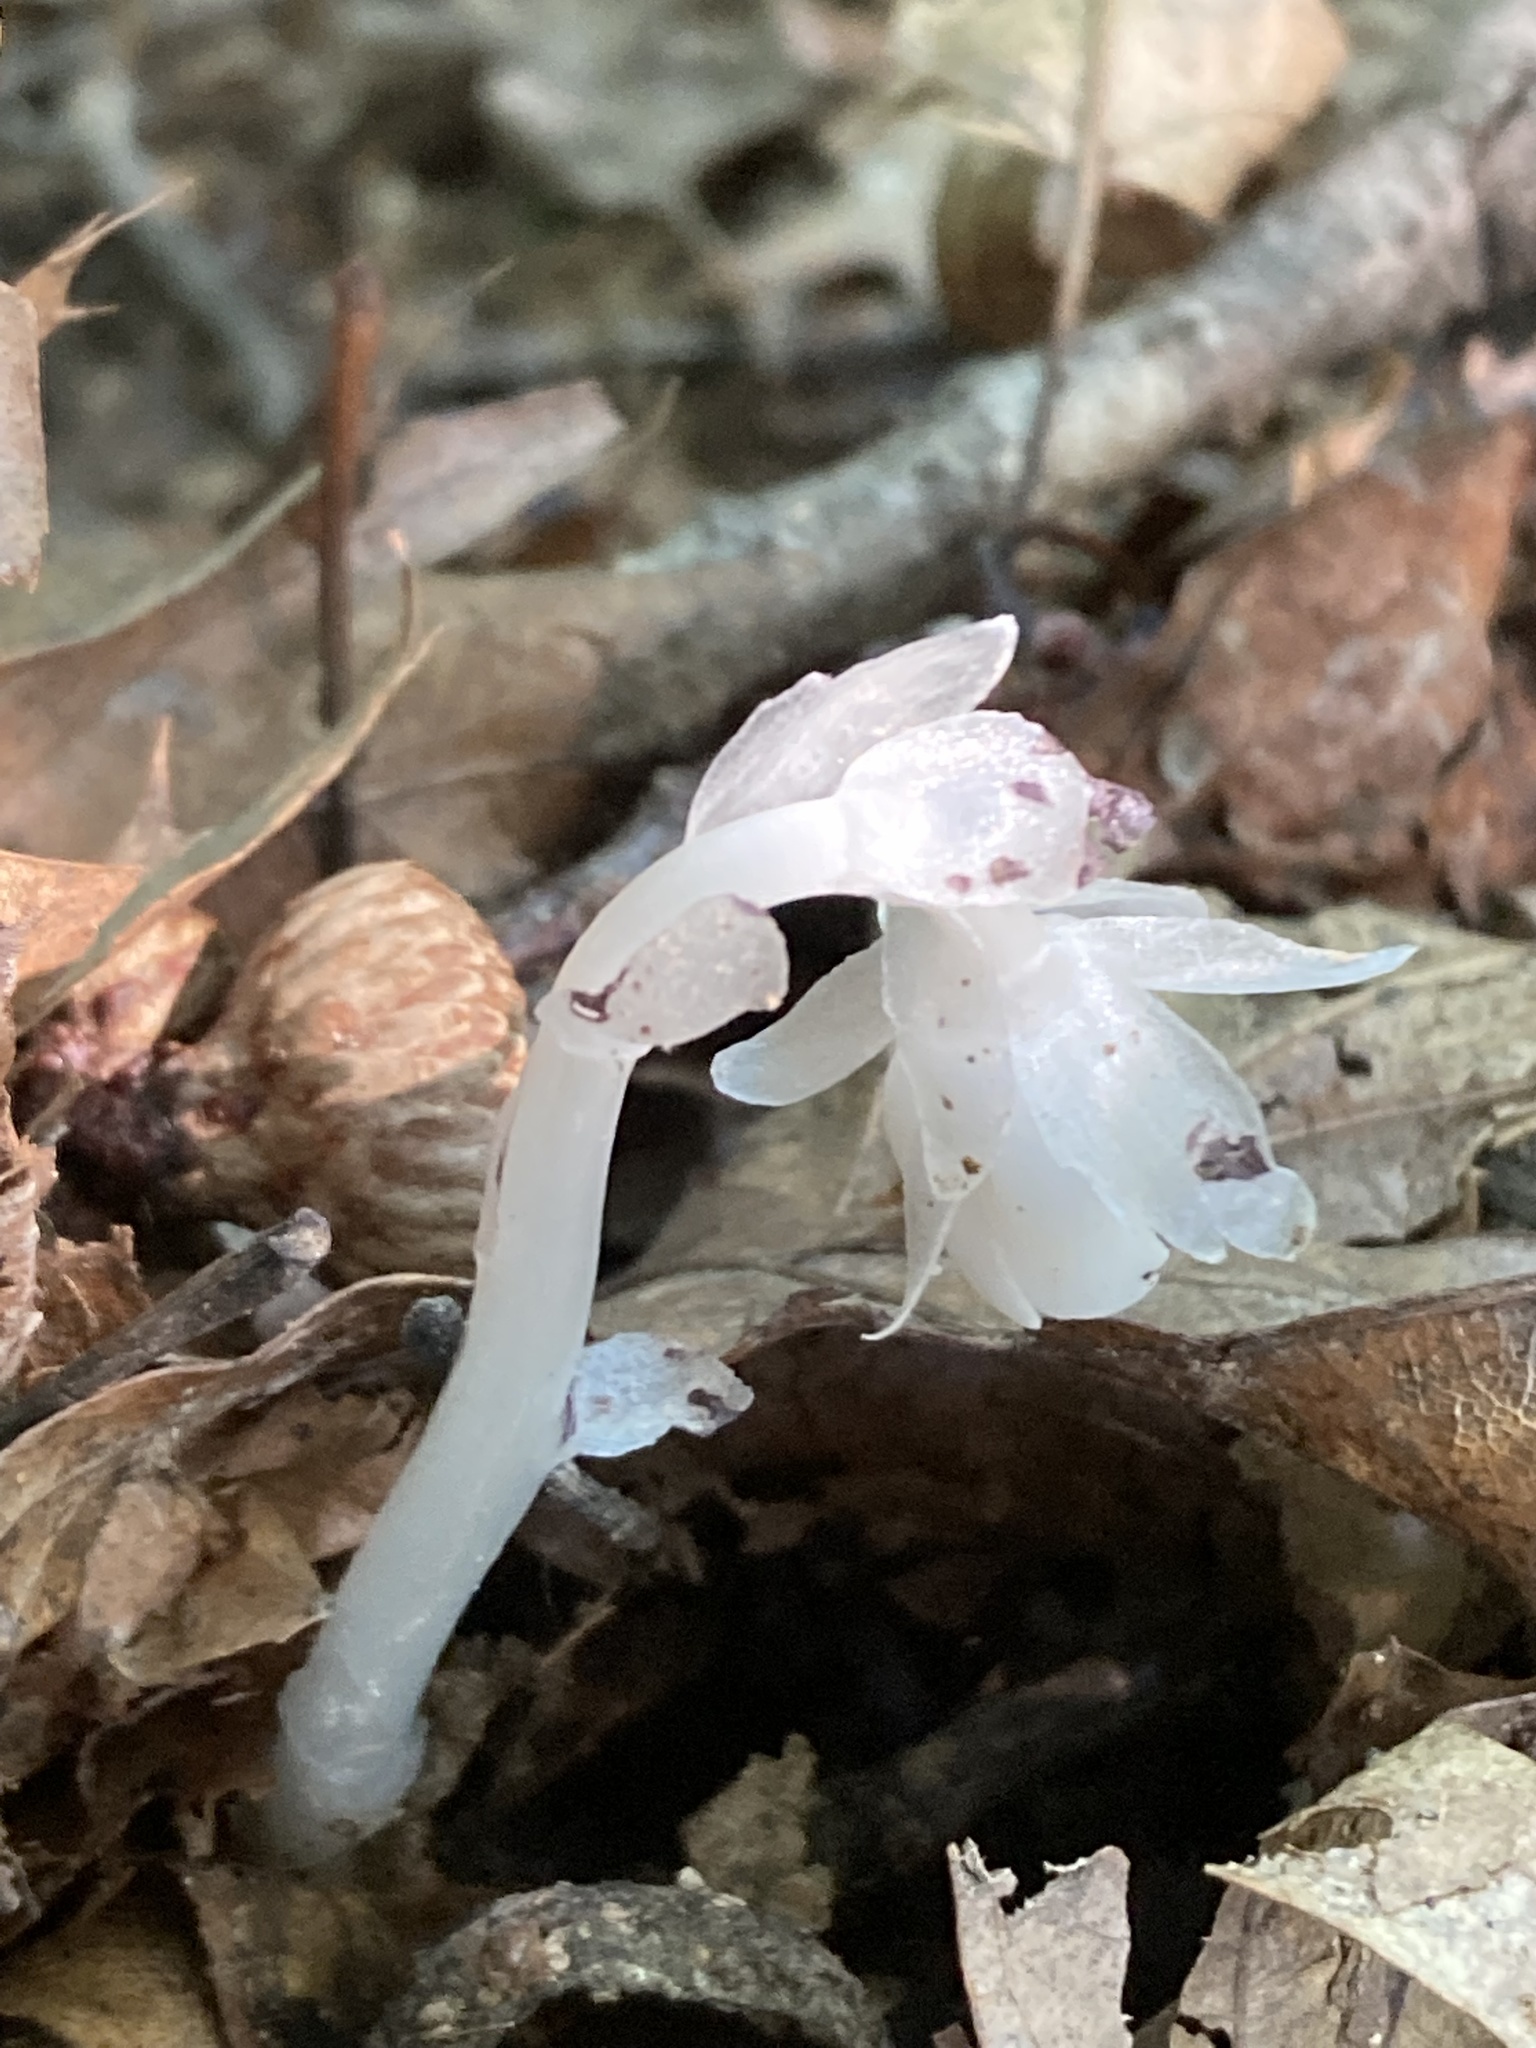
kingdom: Plantae
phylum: Tracheophyta
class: Magnoliopsida
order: Ericales
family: Ericaceae
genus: Monotropa
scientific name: Monotropa uniflora
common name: Convulsion root
